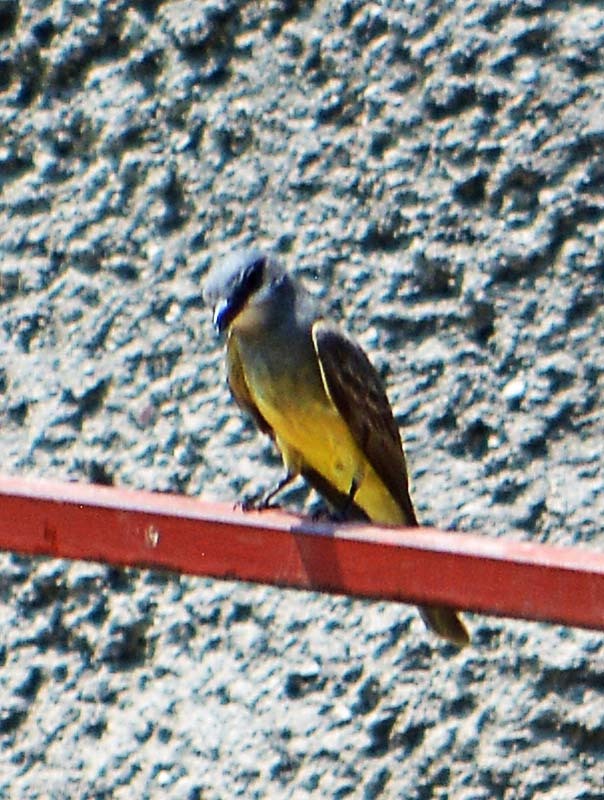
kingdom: Animalia
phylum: Chordata
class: Aves
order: Passeriformes
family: Tyrannidae
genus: Tyrannus
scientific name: Tyrannus vociferans
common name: Cassin's kingbird
